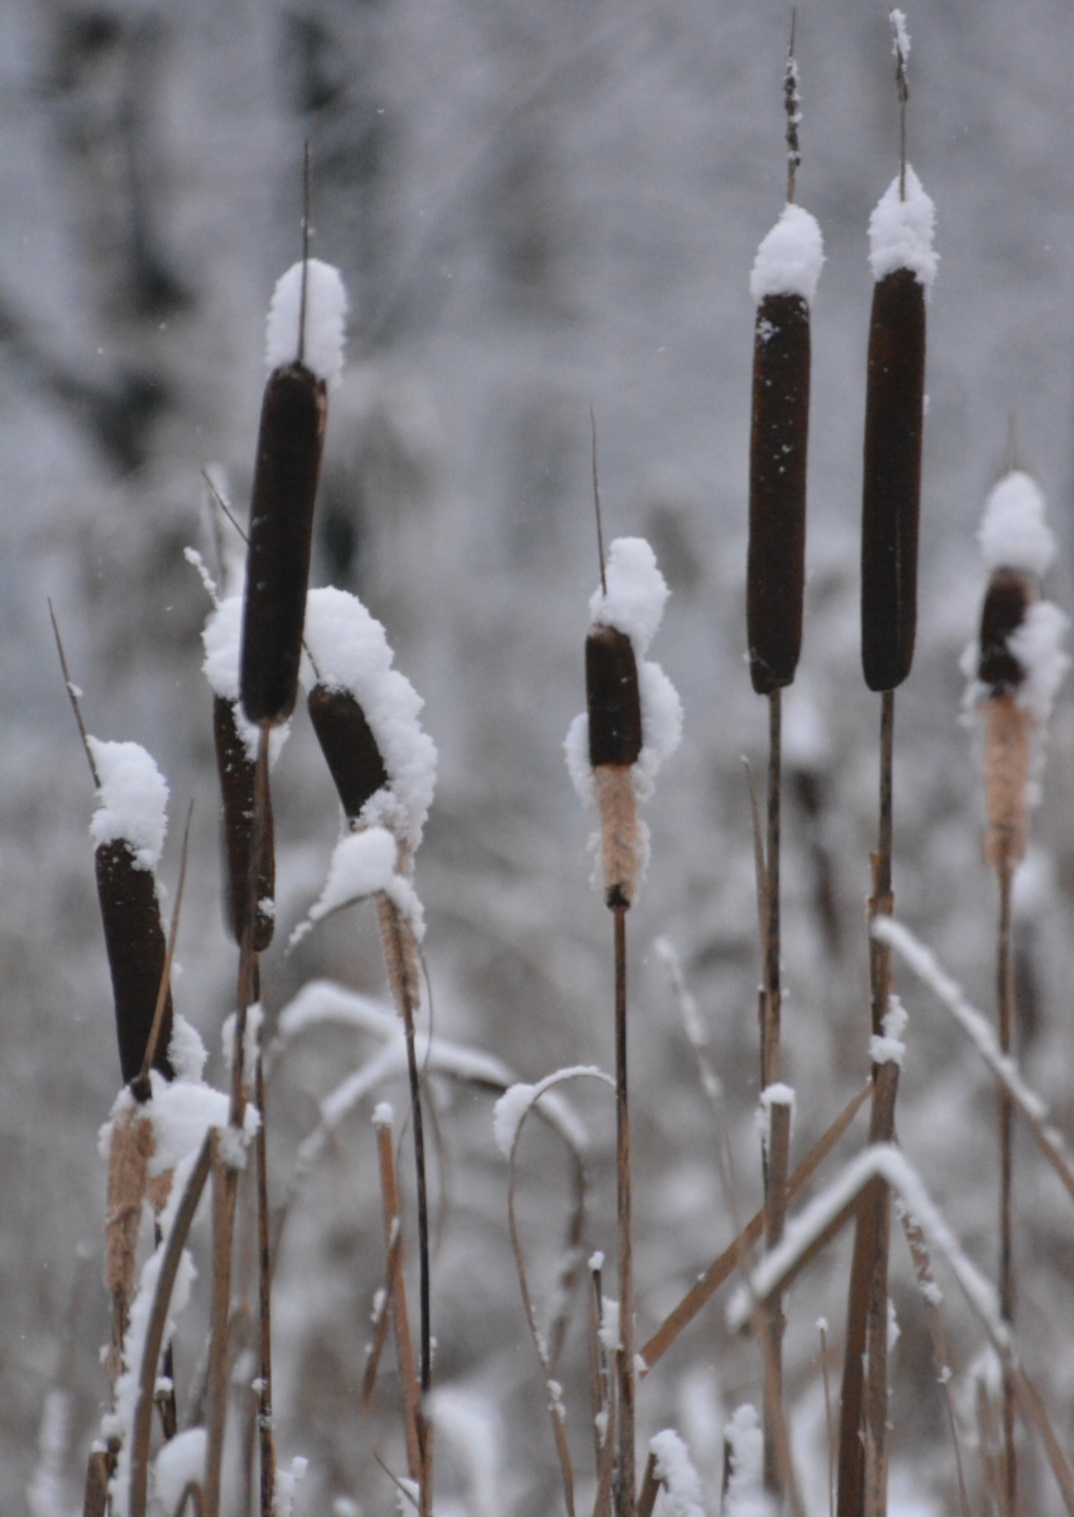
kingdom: Plantae
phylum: Tracheophyta
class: Liliopsida
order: Poales
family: Typhaceae
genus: Typha
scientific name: Typha latifolia
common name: Broadleaf cattail
